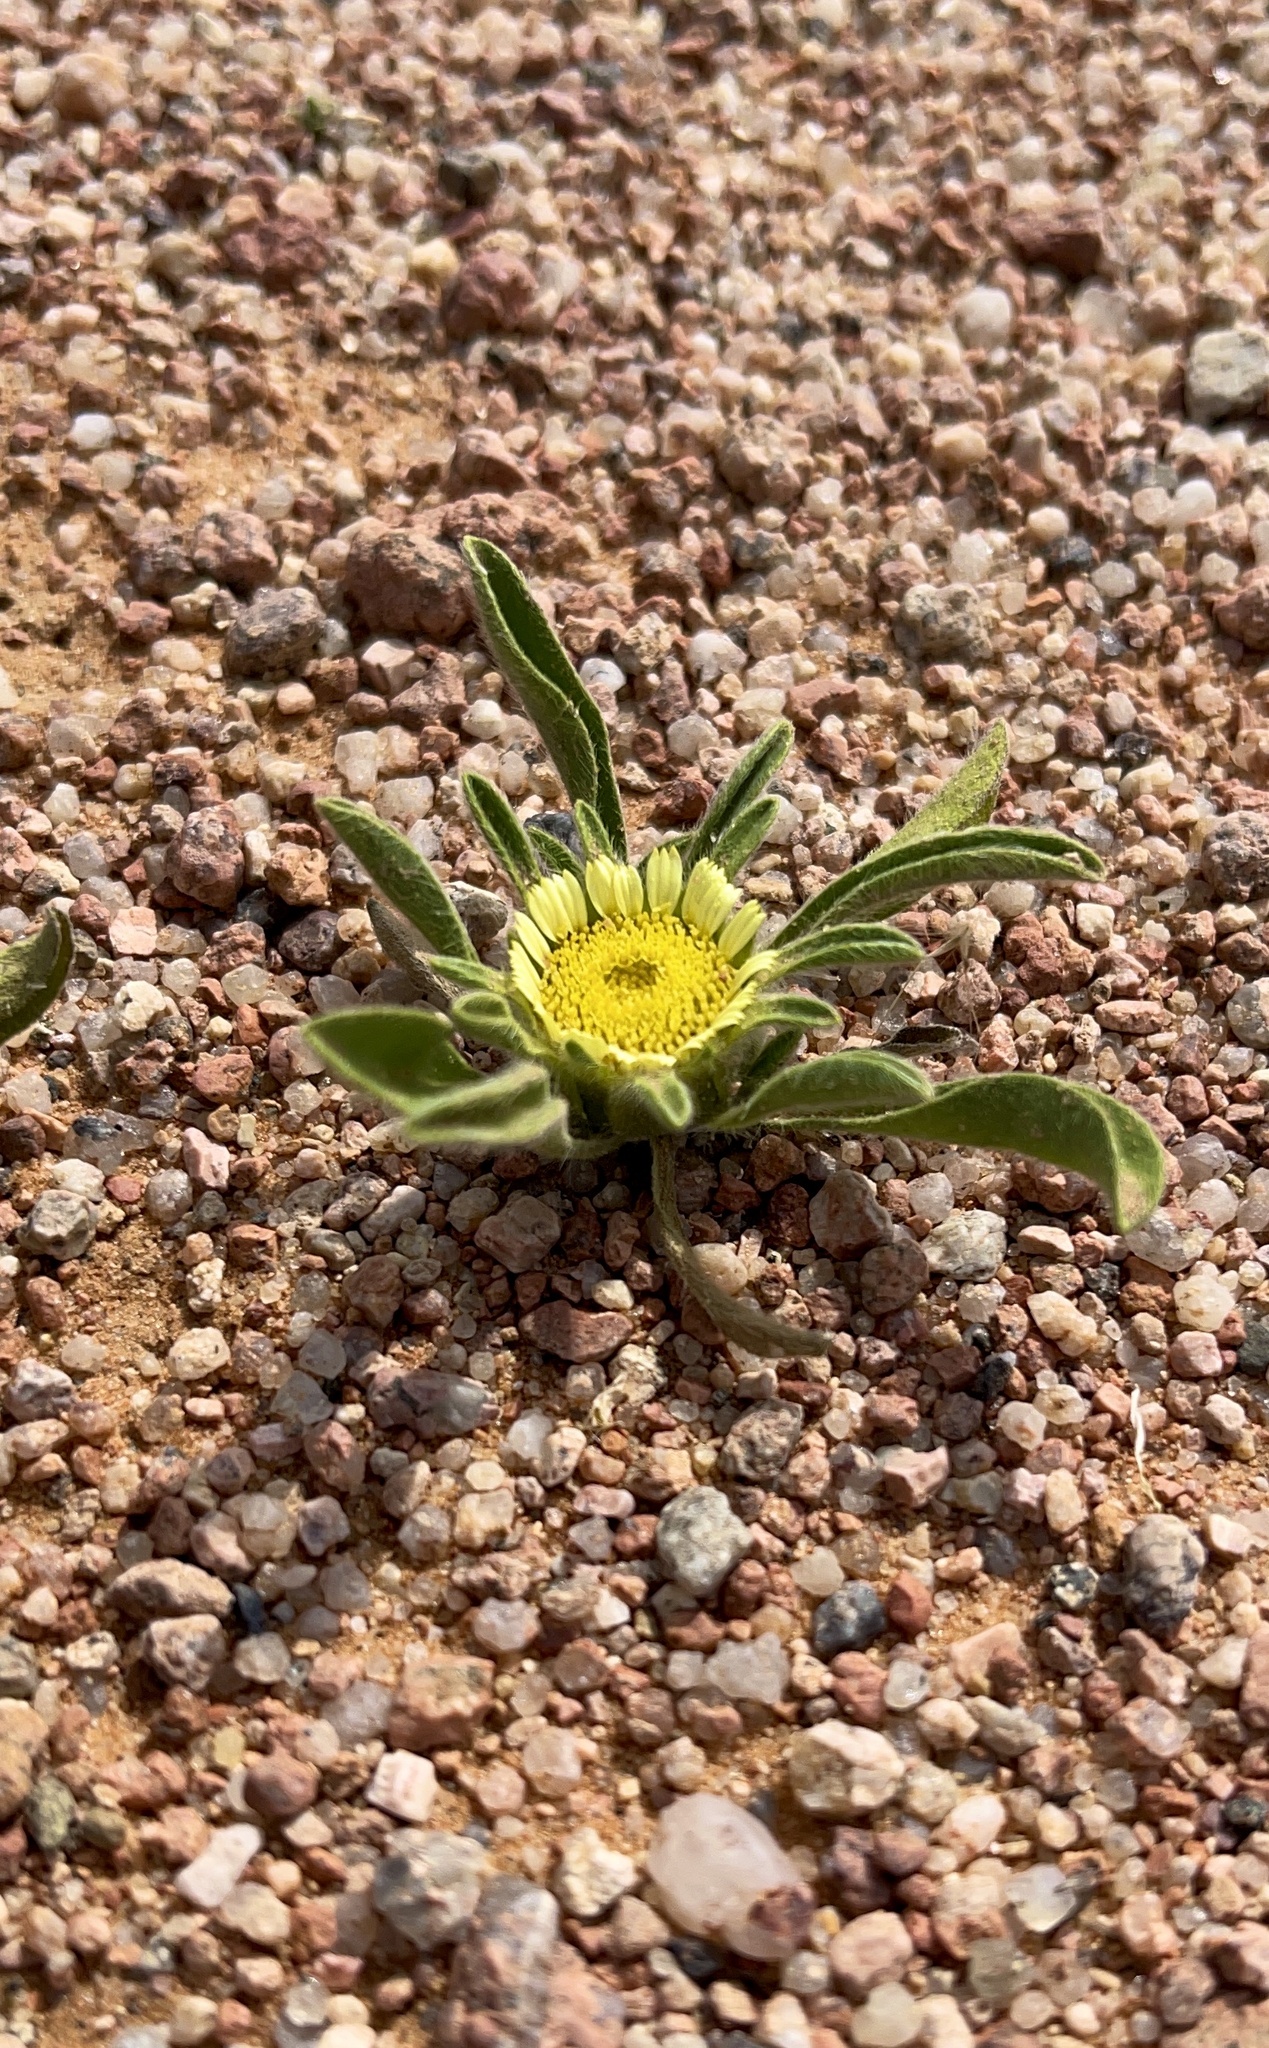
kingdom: Plantae
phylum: Tracheophyta
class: Magnoliopsida
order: Asterales
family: Asteraceae
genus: Pallenis
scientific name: Pallenis hierochuntica
